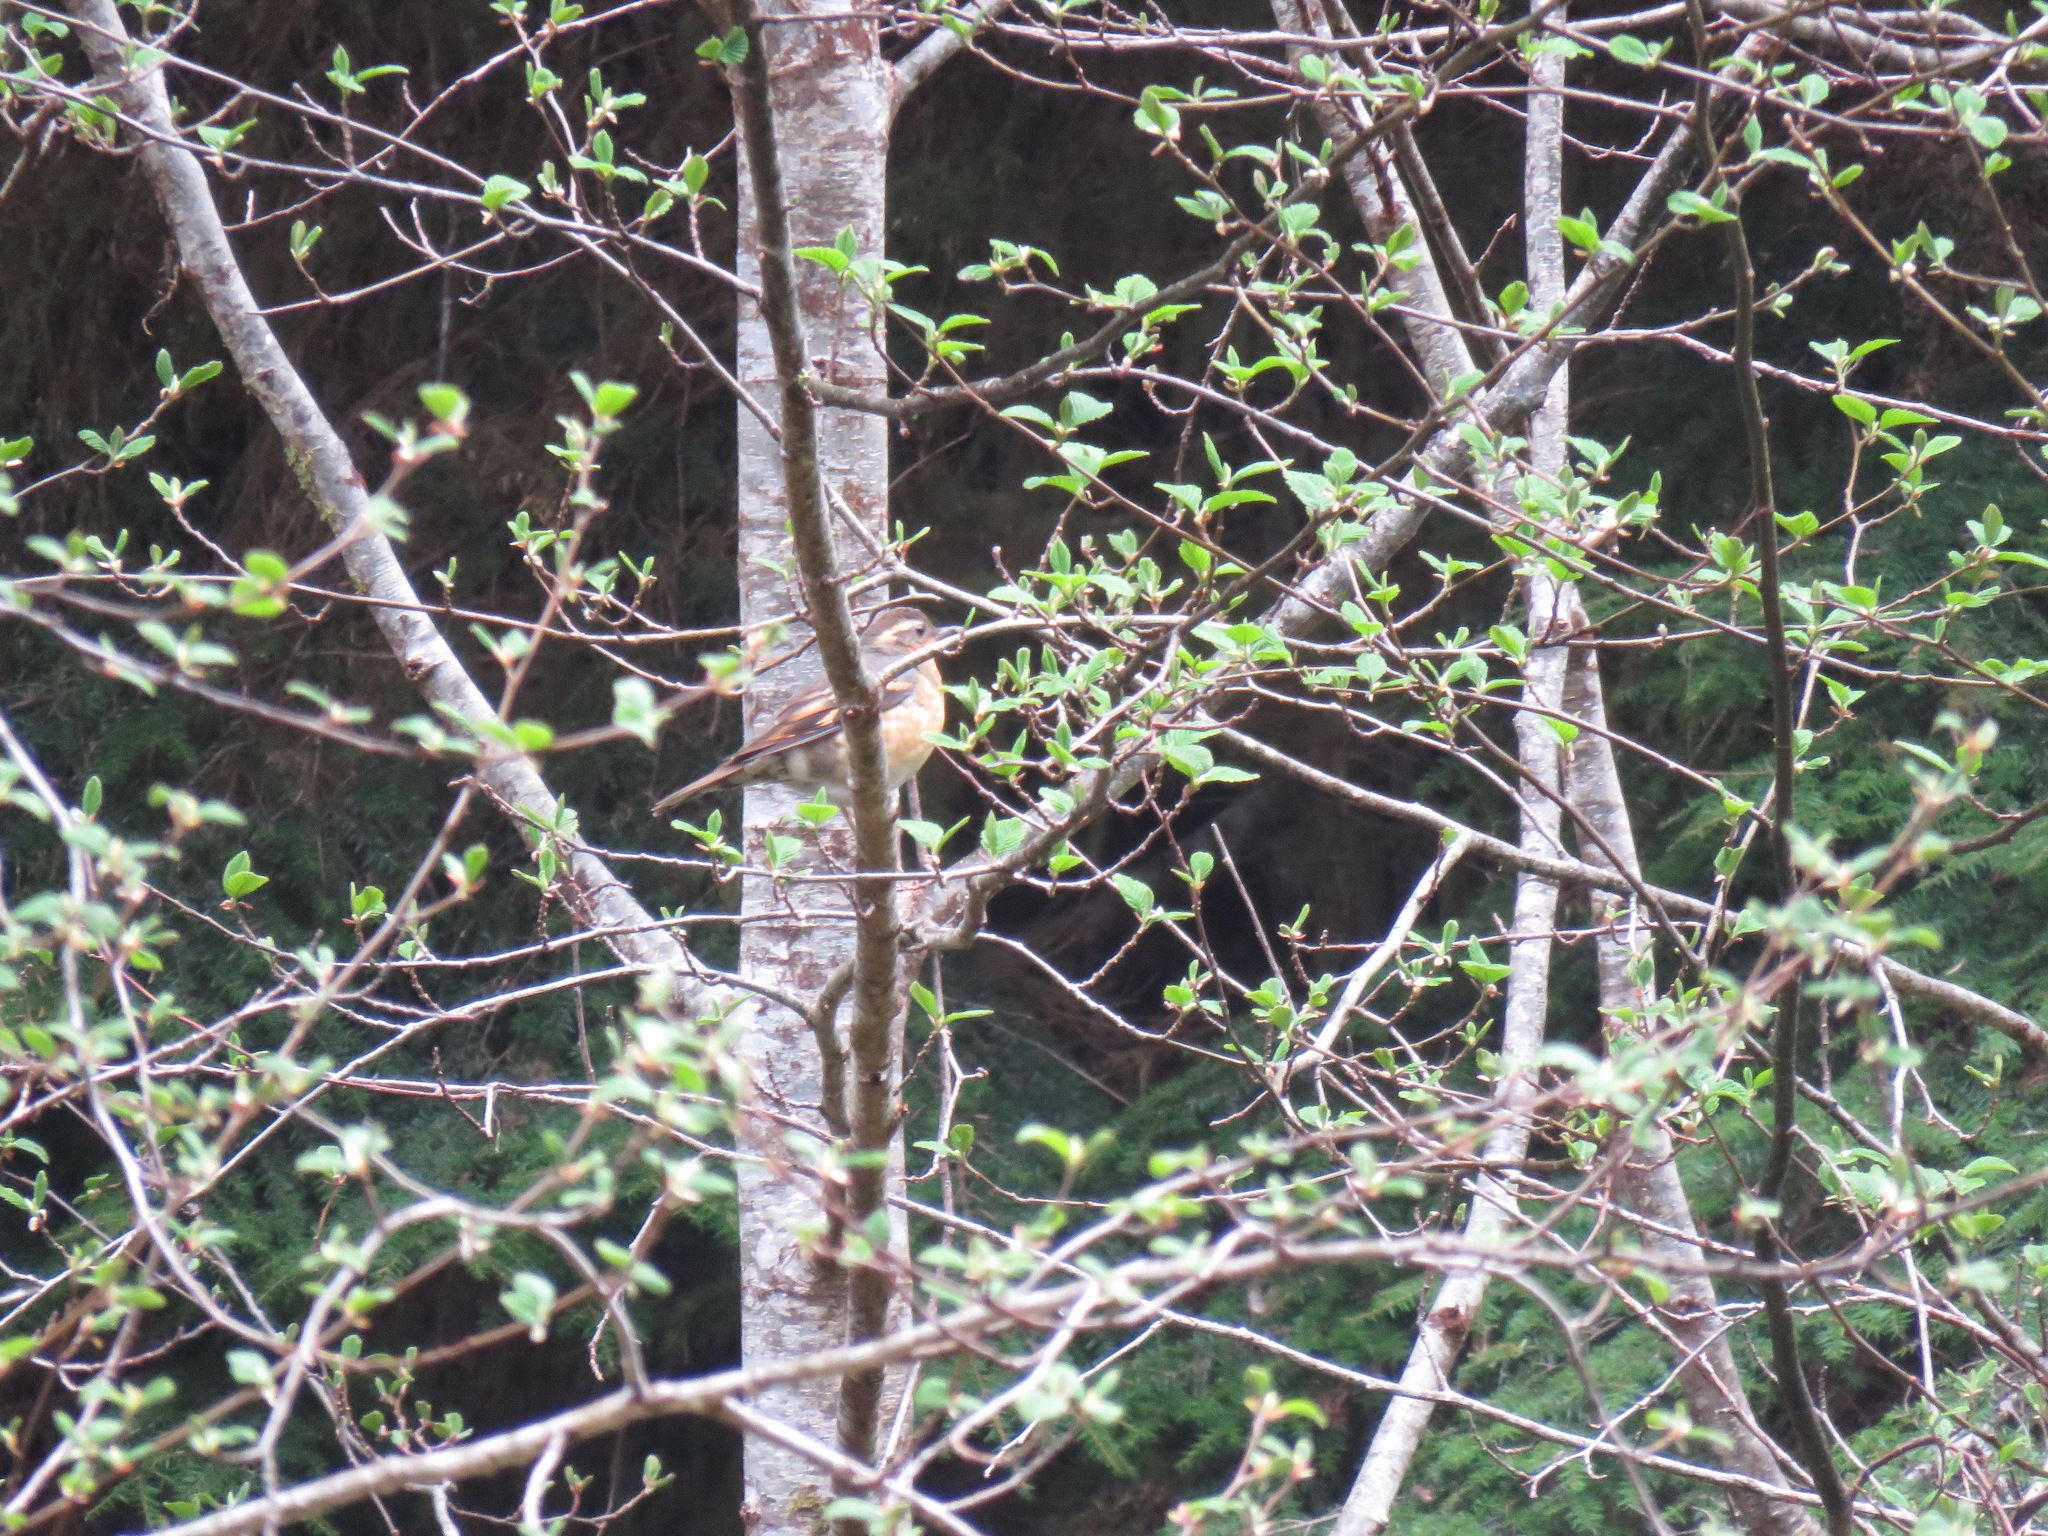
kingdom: Animalia
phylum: Chordata
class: Aves
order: Passeriformes
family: Turdidae
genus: Ixoreus
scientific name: Ixoreus naevius
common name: Varied thrush
